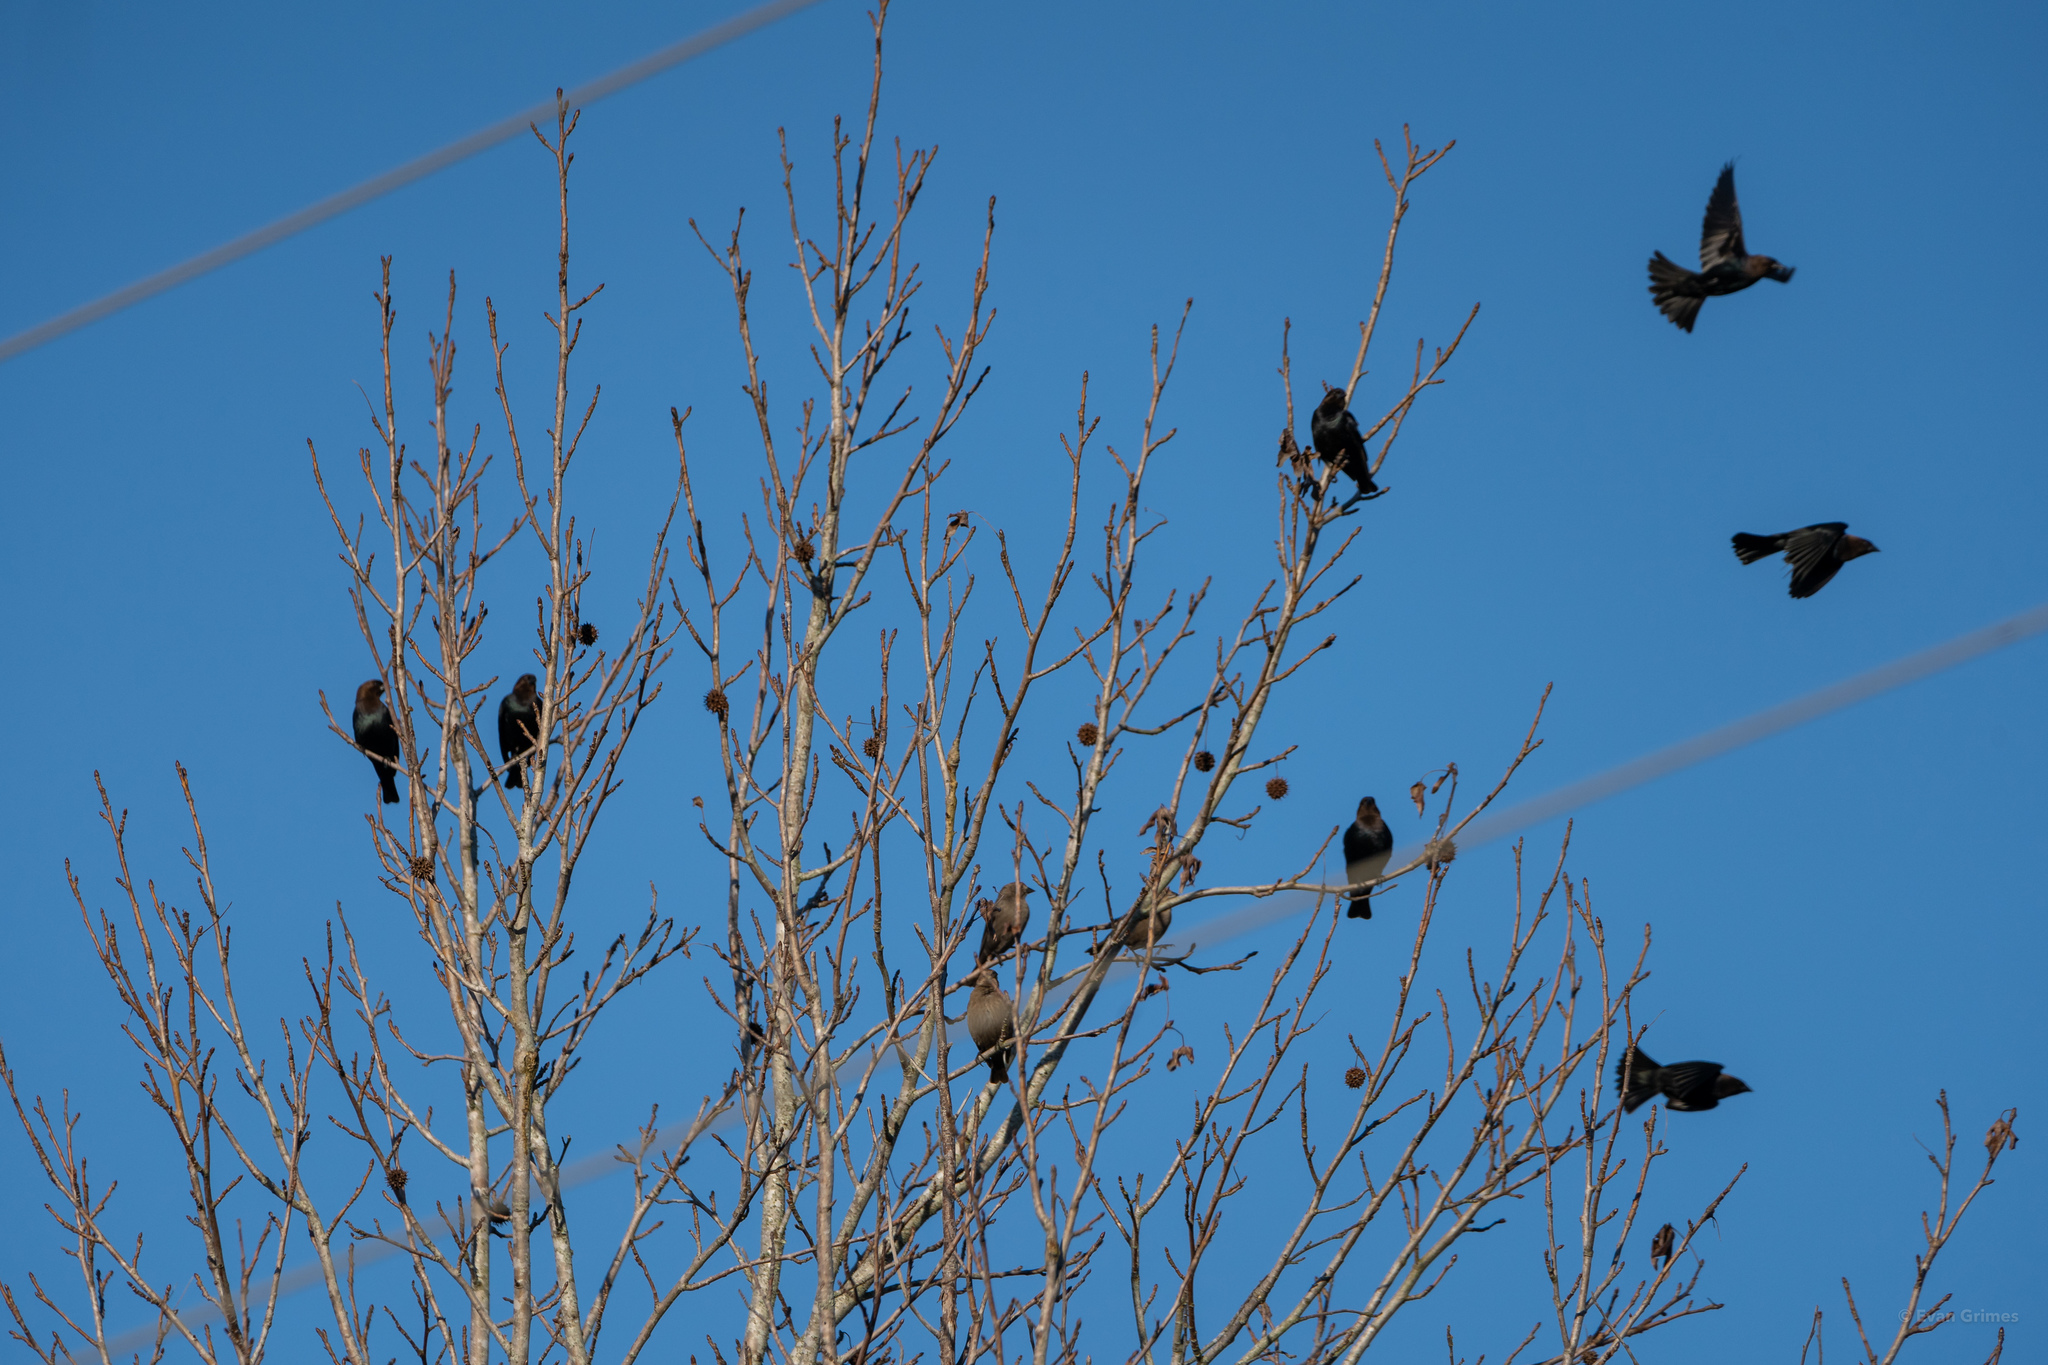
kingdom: Animalia
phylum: Chordata
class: Aves
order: Passeriformes
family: Icteridae
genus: Molothrus
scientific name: Molothrus ater
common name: Brown-headed cowbird
